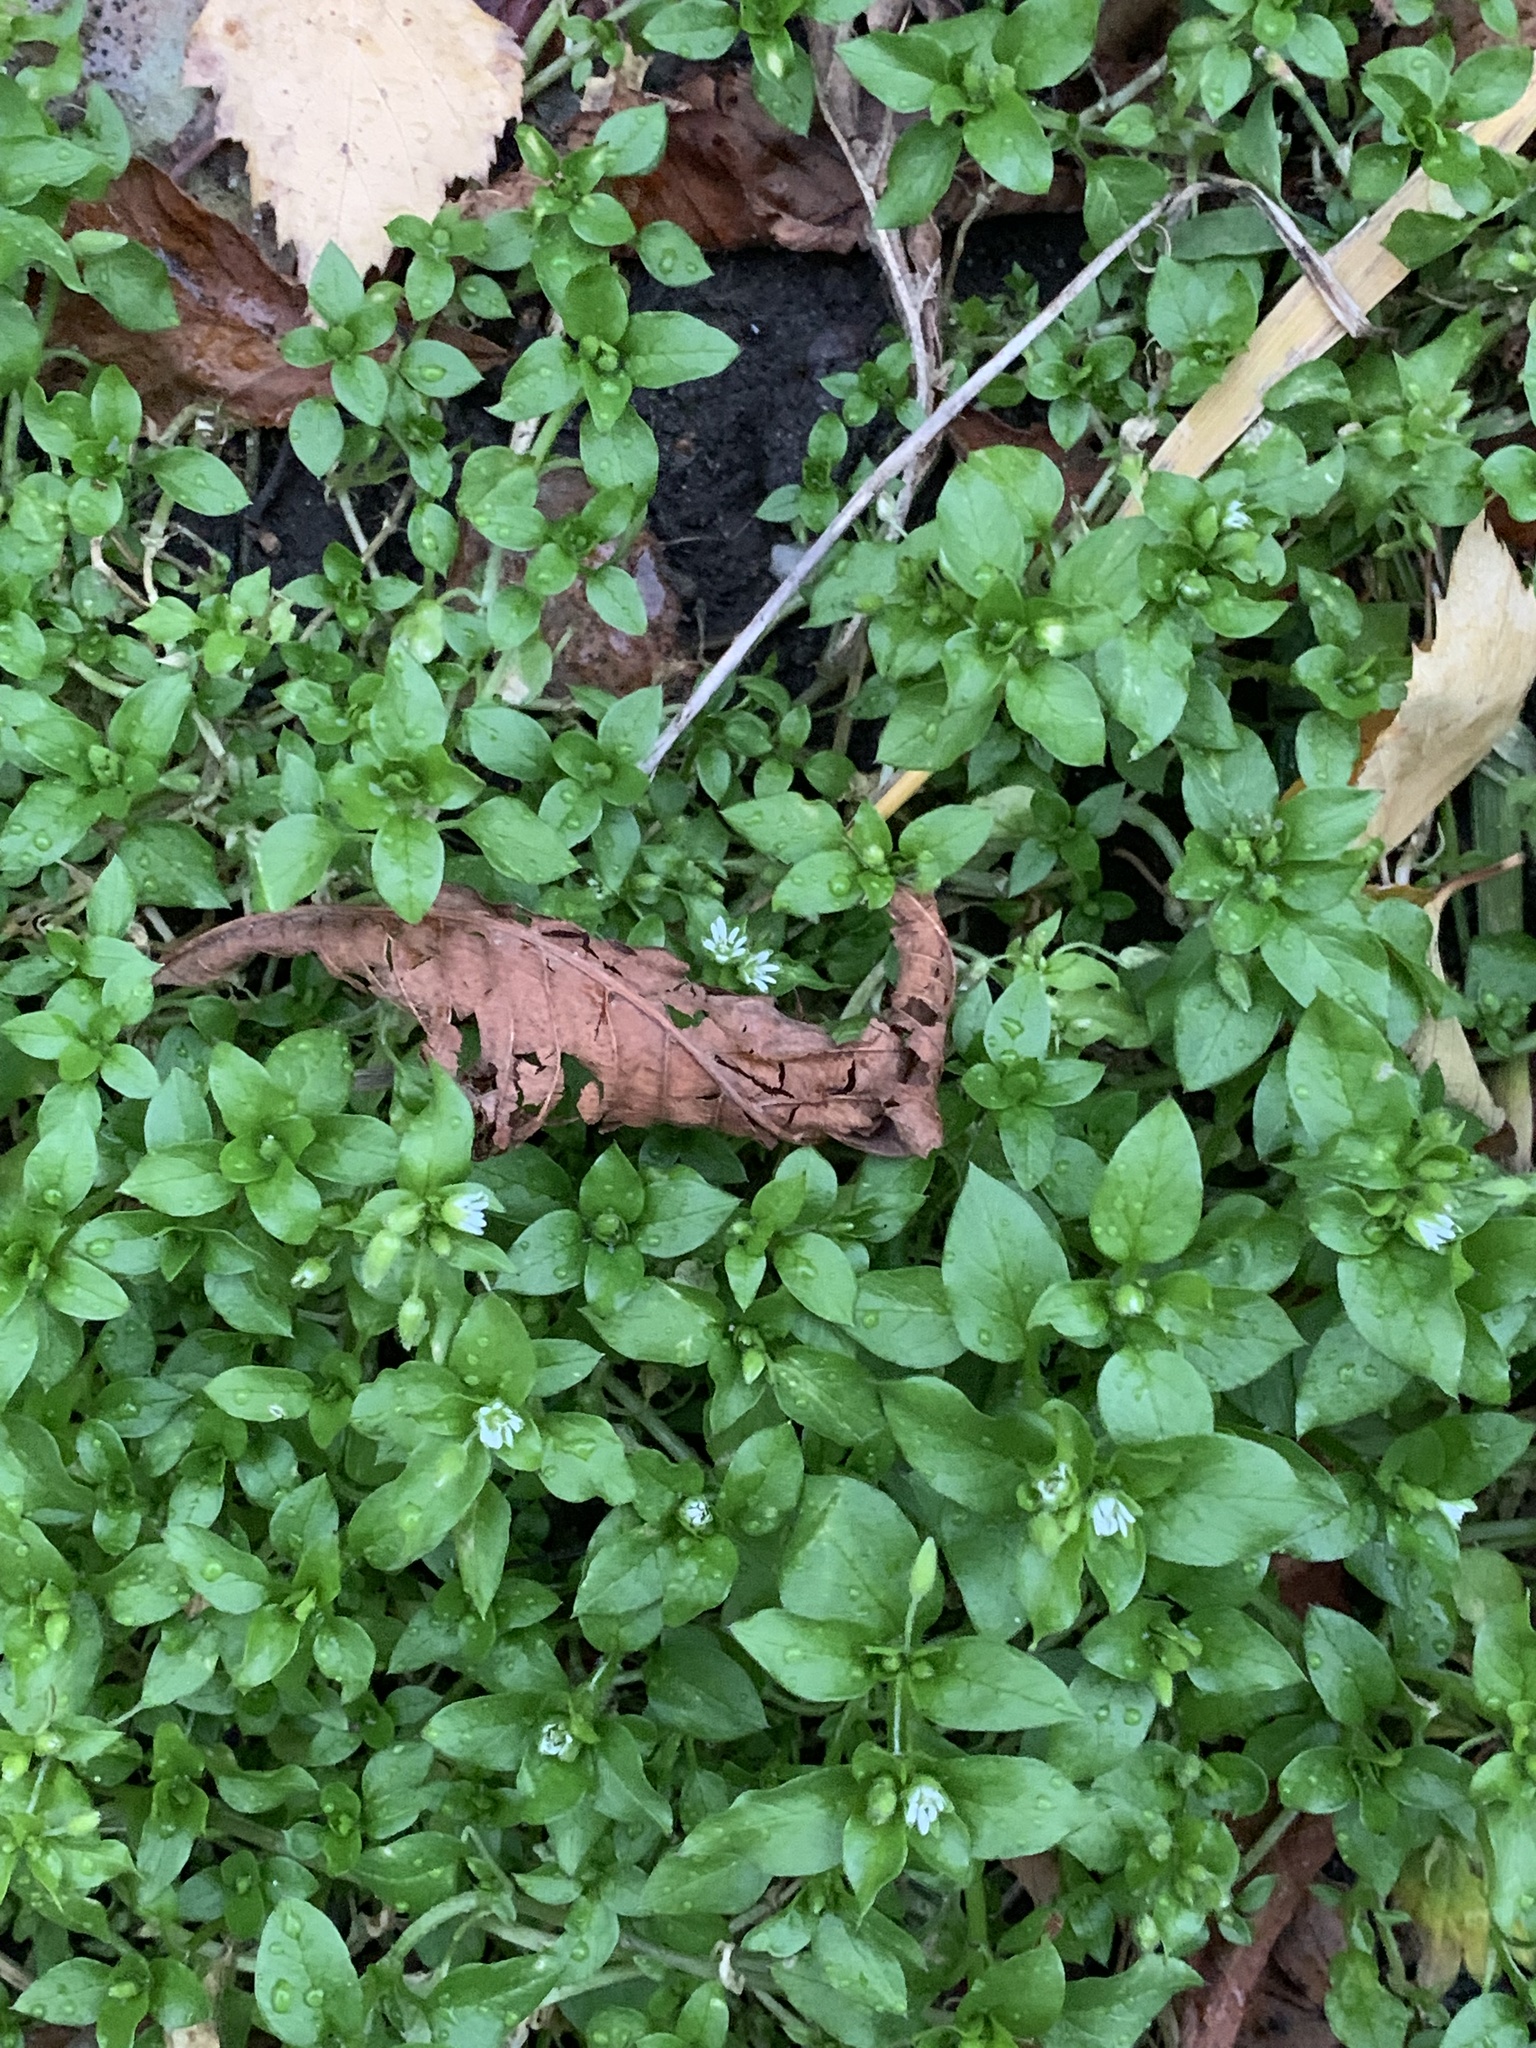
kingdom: Plantae
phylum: Tracheophyta
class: Magnoliopsida
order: Caryophyllales
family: Caryophyllaceae
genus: Stellaria
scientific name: Stellaria media
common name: Common chickweed
